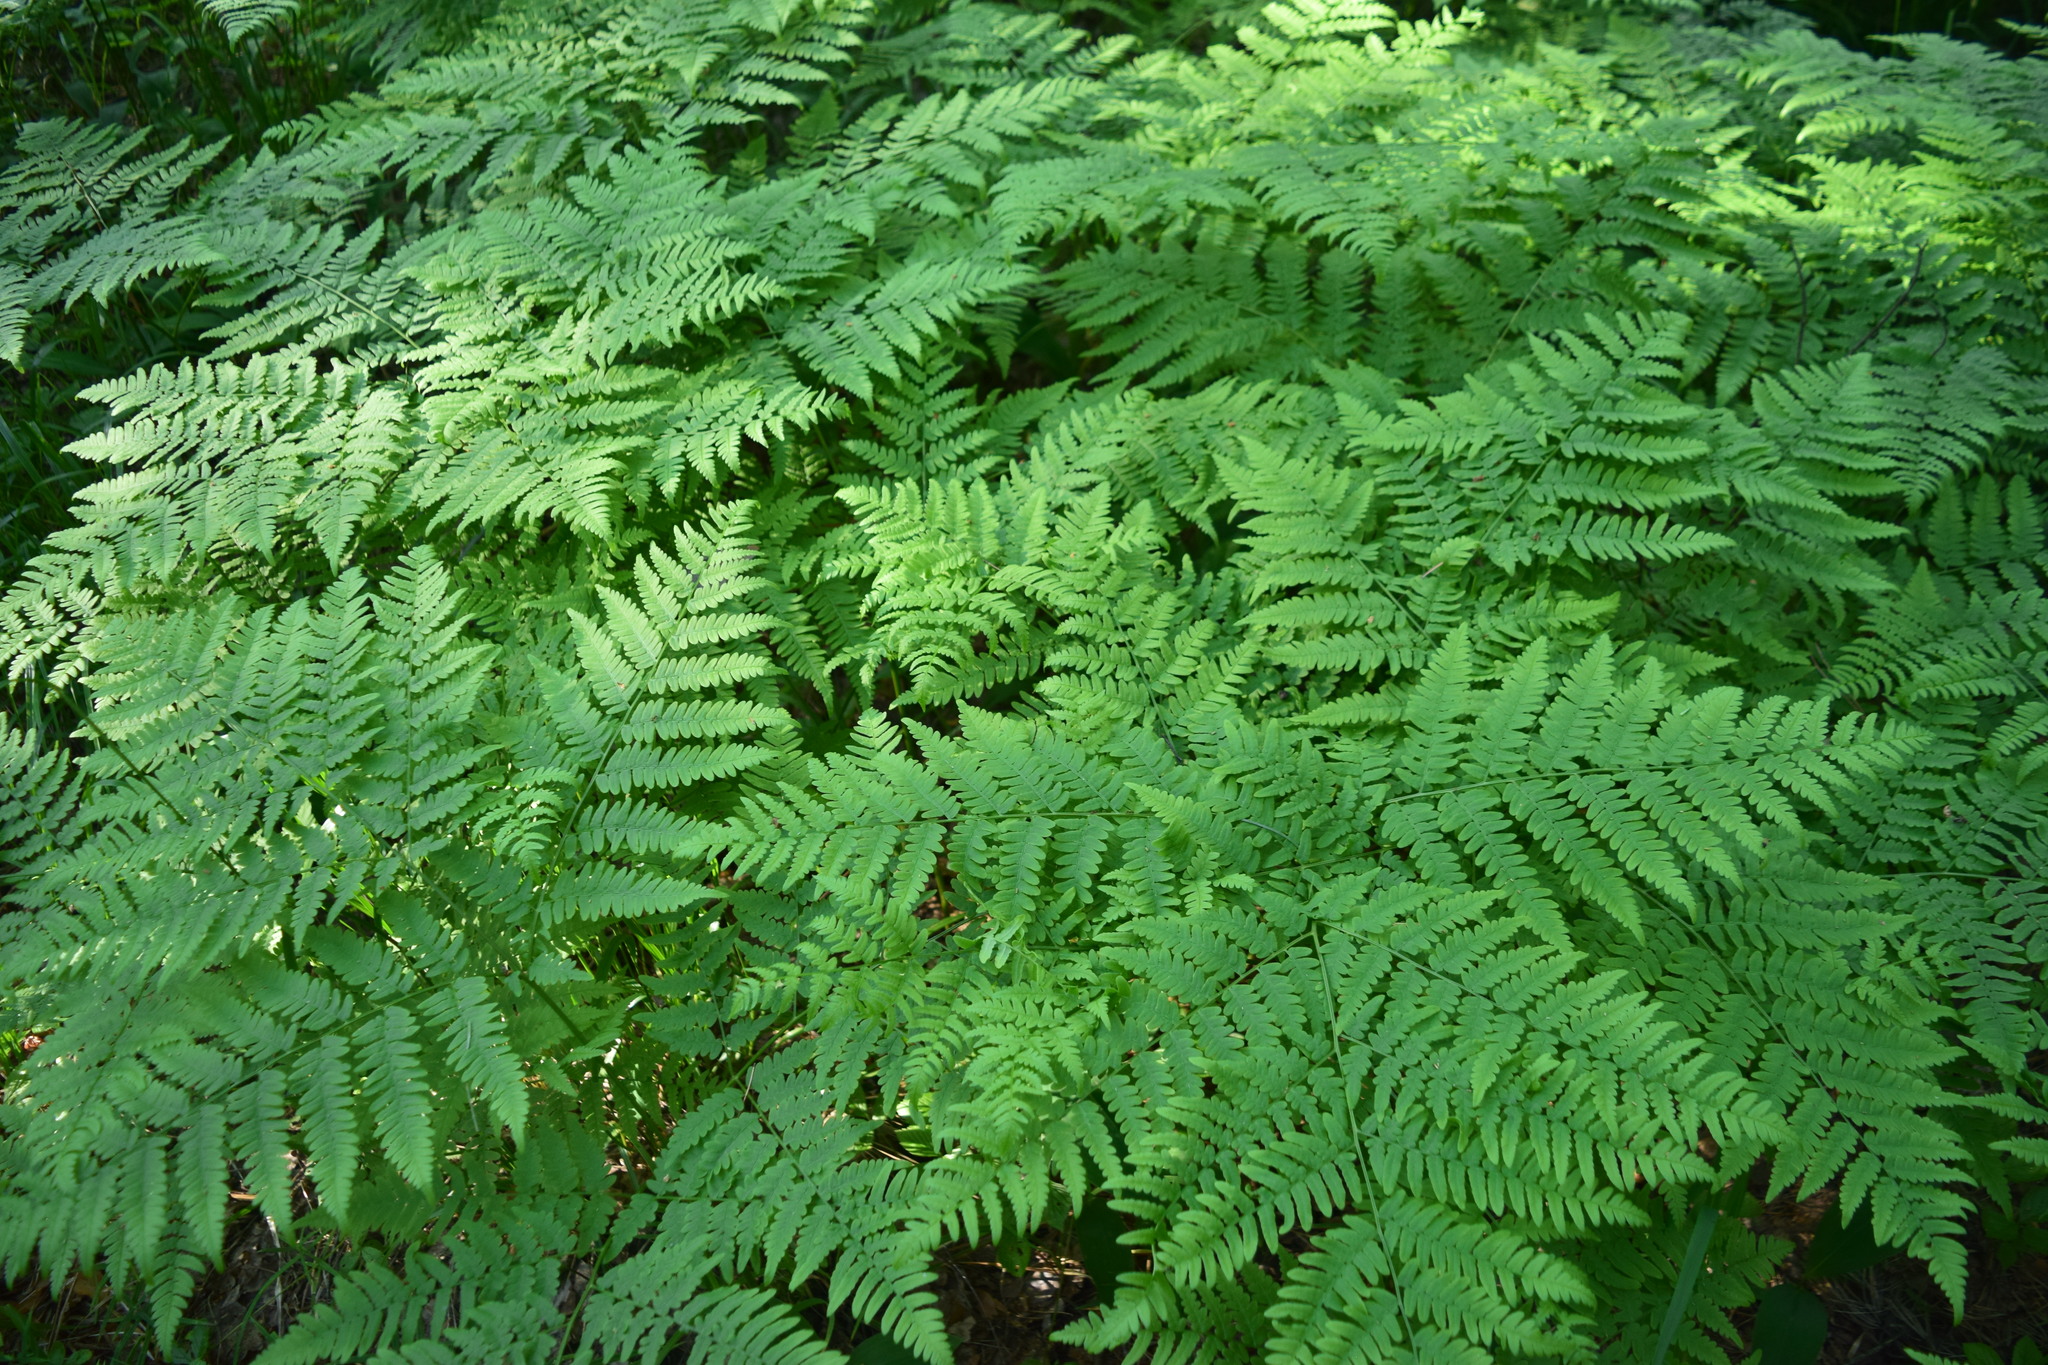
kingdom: Plantae
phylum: Tracheophyta
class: Polypodiopsida
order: Polypodiales
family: Dennstaedtiaceae
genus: Pteridium
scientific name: Pteridium aquilinum
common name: Bracken
